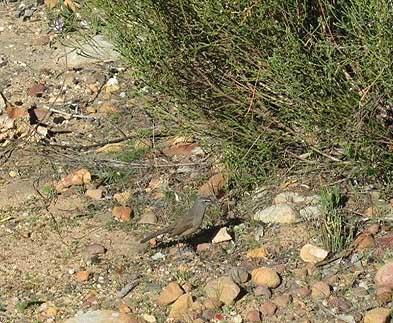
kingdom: Animalia
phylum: Chordata
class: Aves
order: Passeriformes
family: Muscicapidae
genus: Erythropygia
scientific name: Erythropygia coryphoeus
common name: Karoo scrub robin
